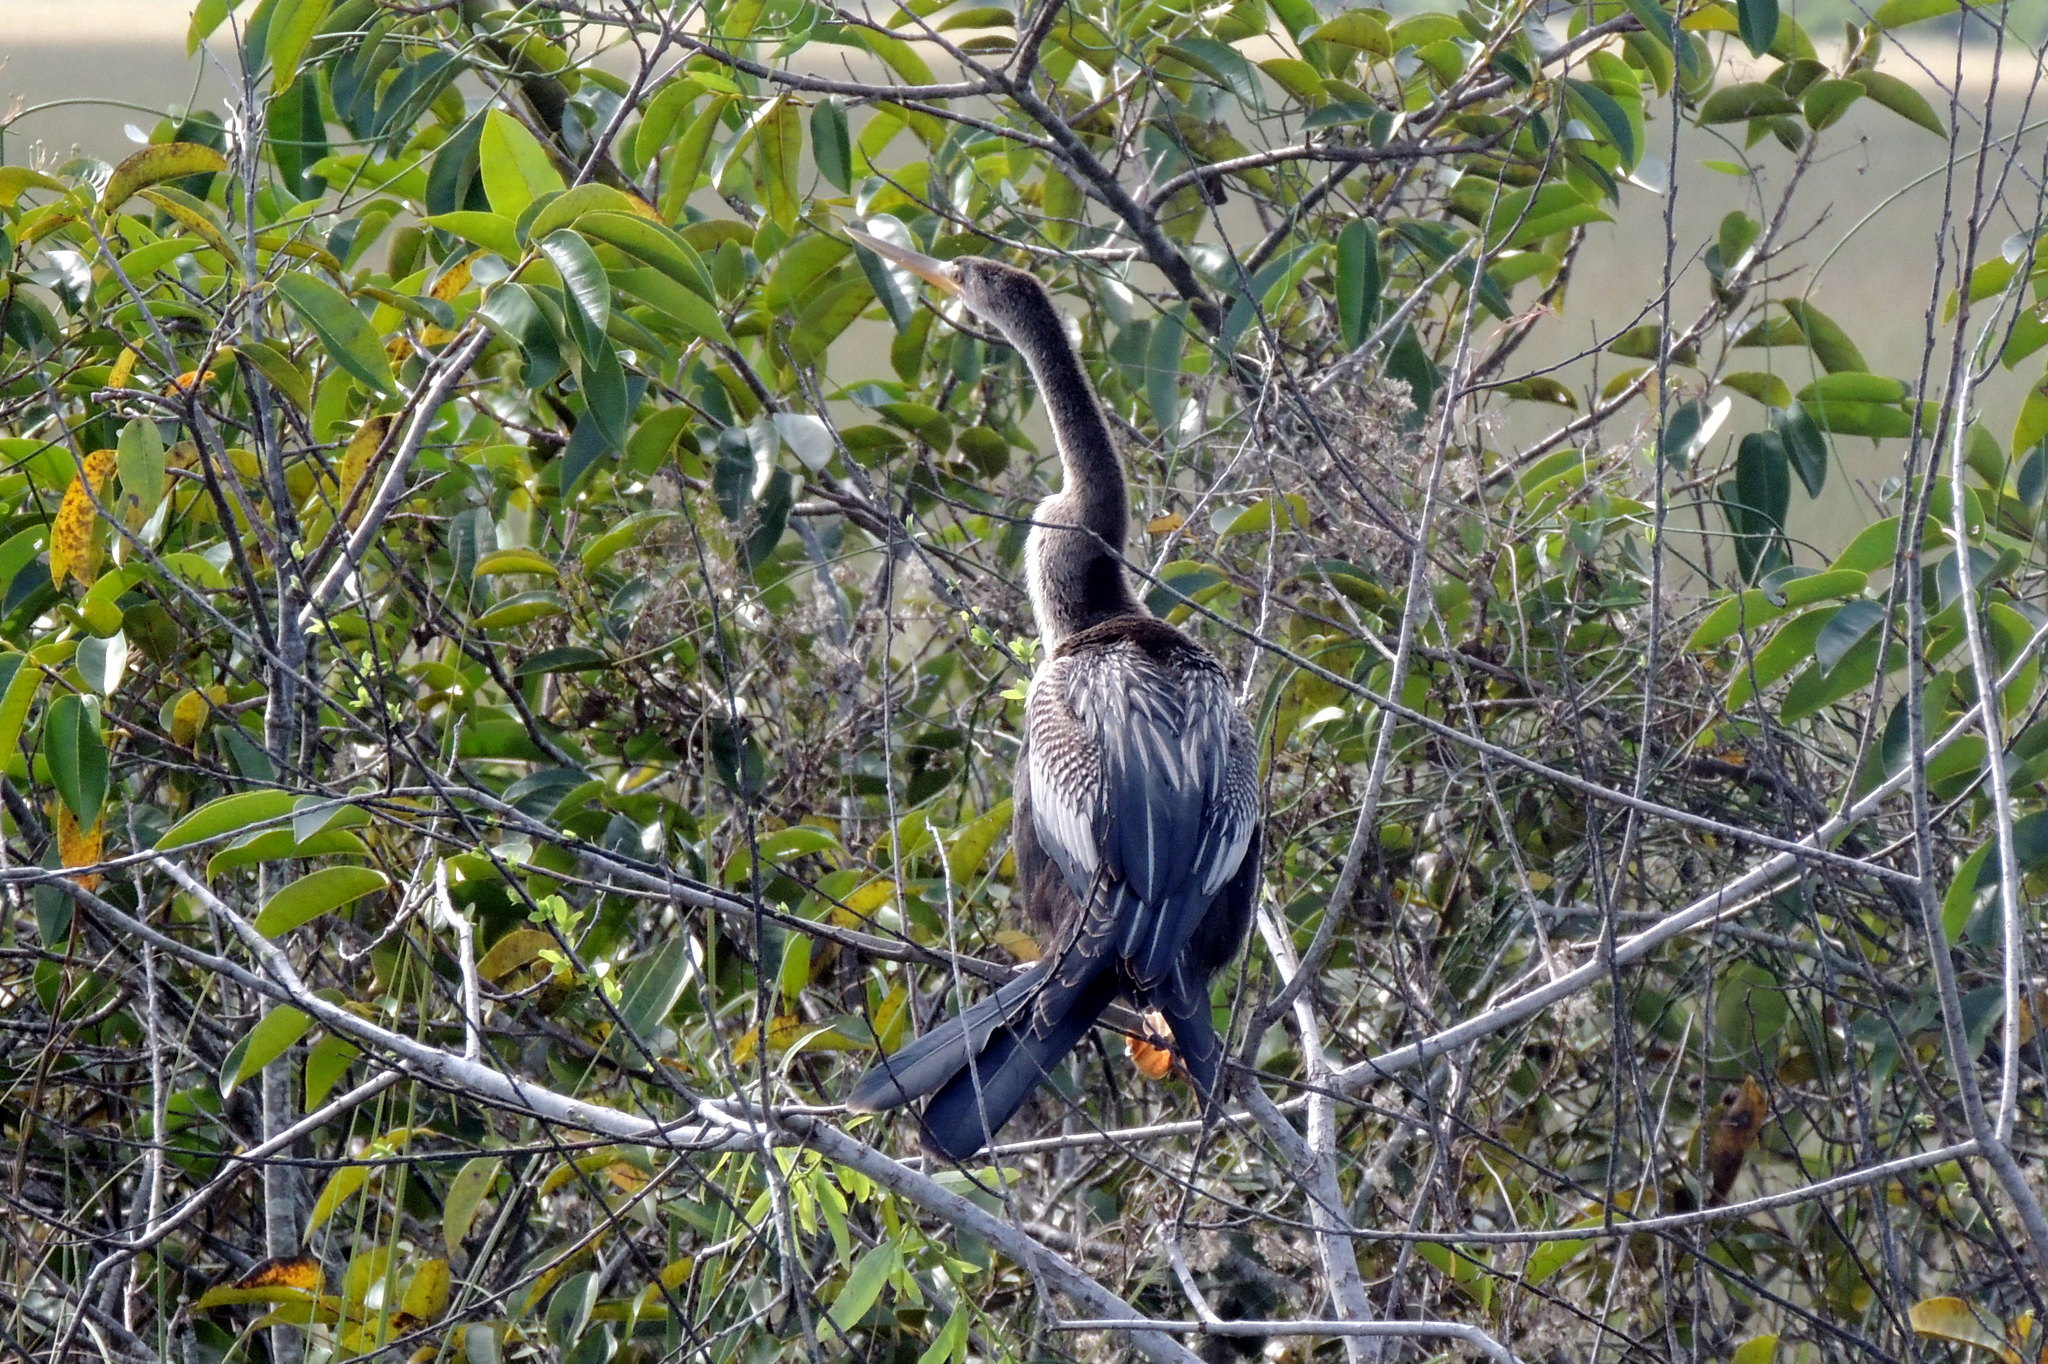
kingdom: Animalia
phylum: Chordata
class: Aves
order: Suliformes
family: Anhingidae
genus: Anhinga
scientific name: Anhinga anhinga
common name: Anhinga
